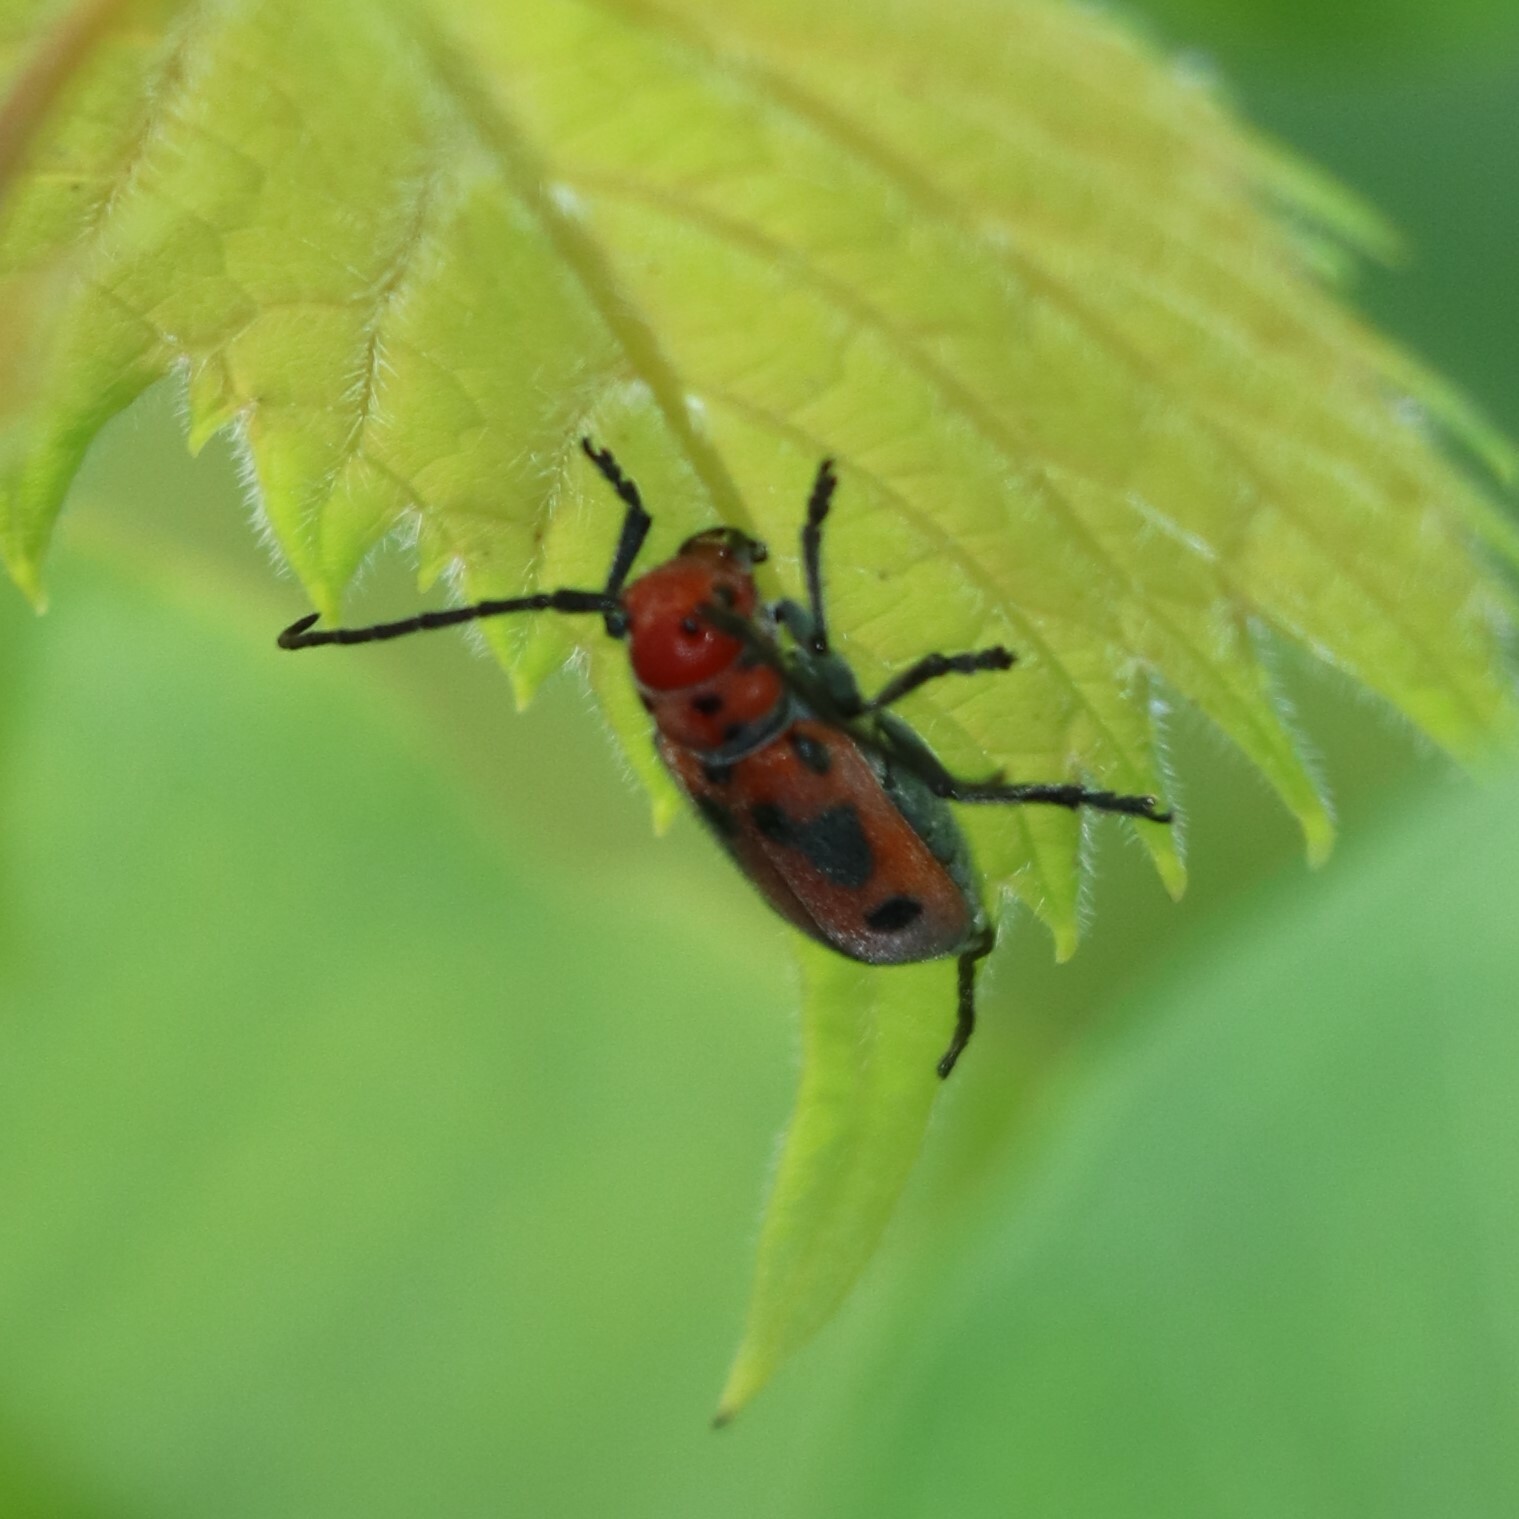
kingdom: Animalia
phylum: Arthropoda
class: Insecta
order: Coleoptera
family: Cerambycidae
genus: Tetraopes
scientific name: Tetraopes tetrophthalmus
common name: Red milkweed beetle
